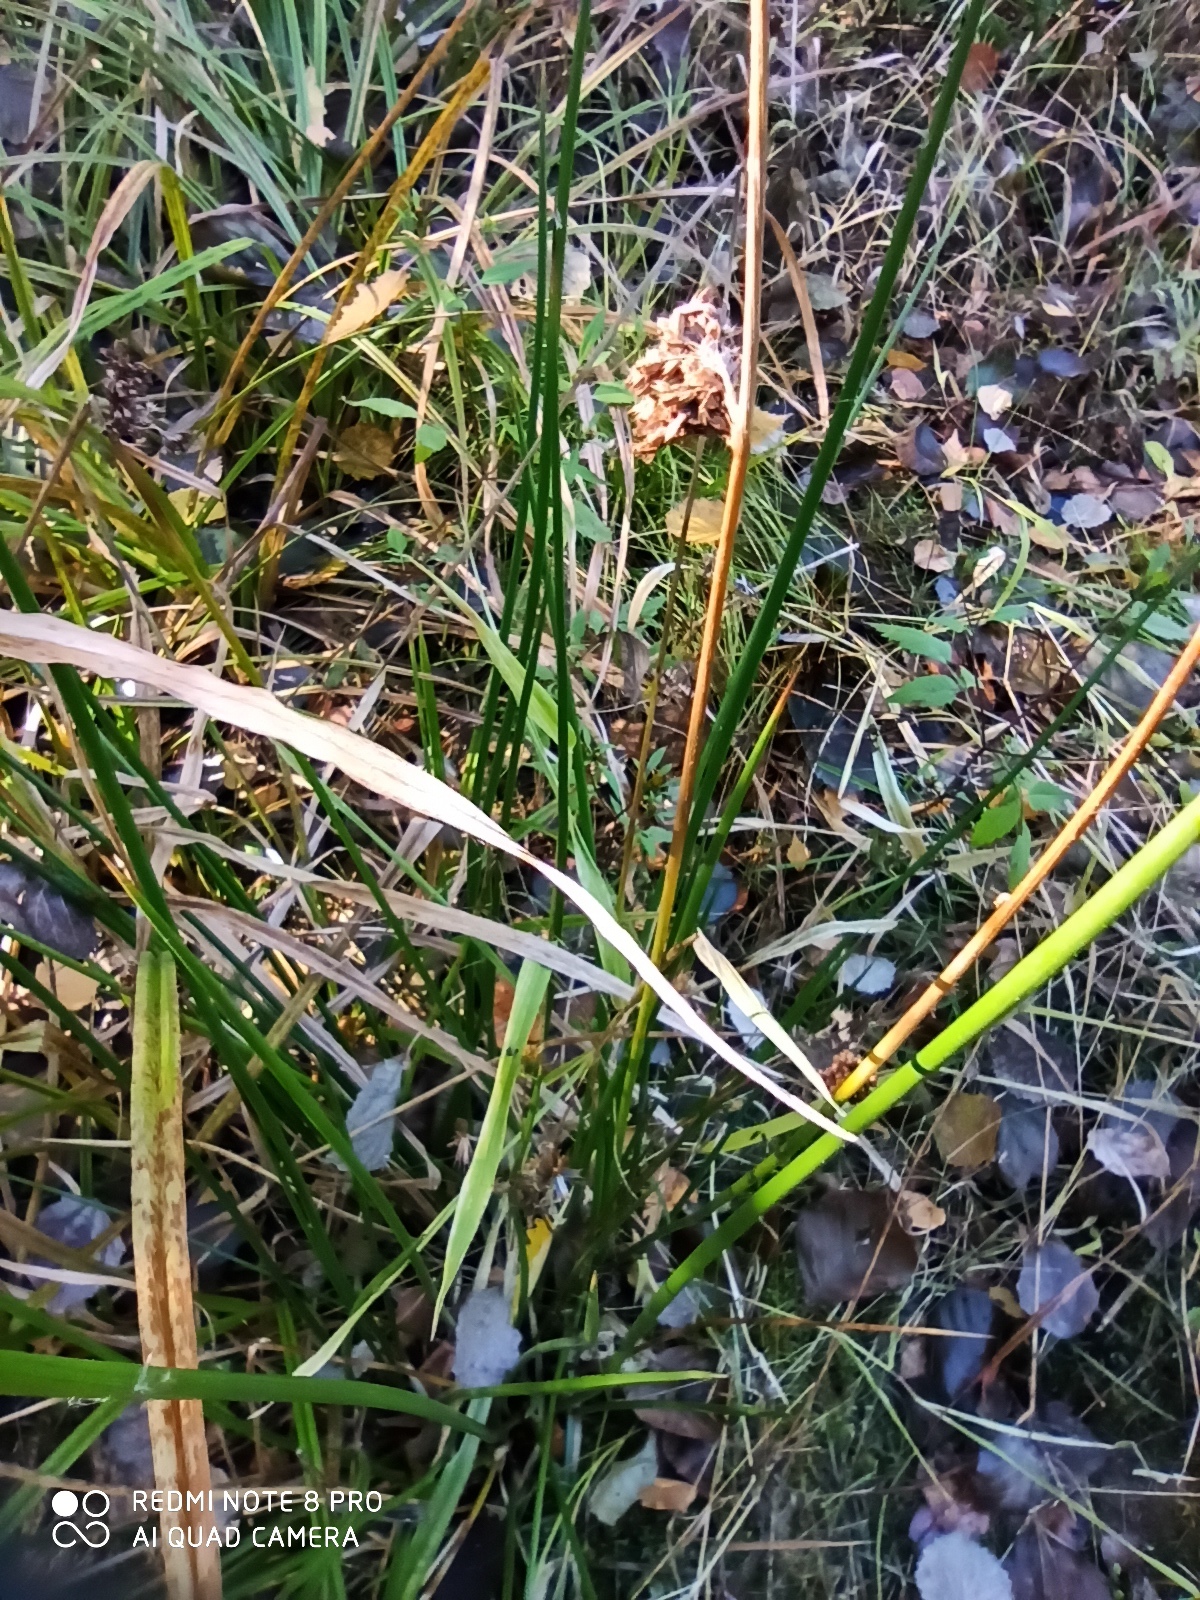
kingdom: Plantae
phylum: Tracheophyta
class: Liliopsida
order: Poales
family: Juncaceae
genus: Juncus
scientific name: Juncus effusus
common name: Soft rush
